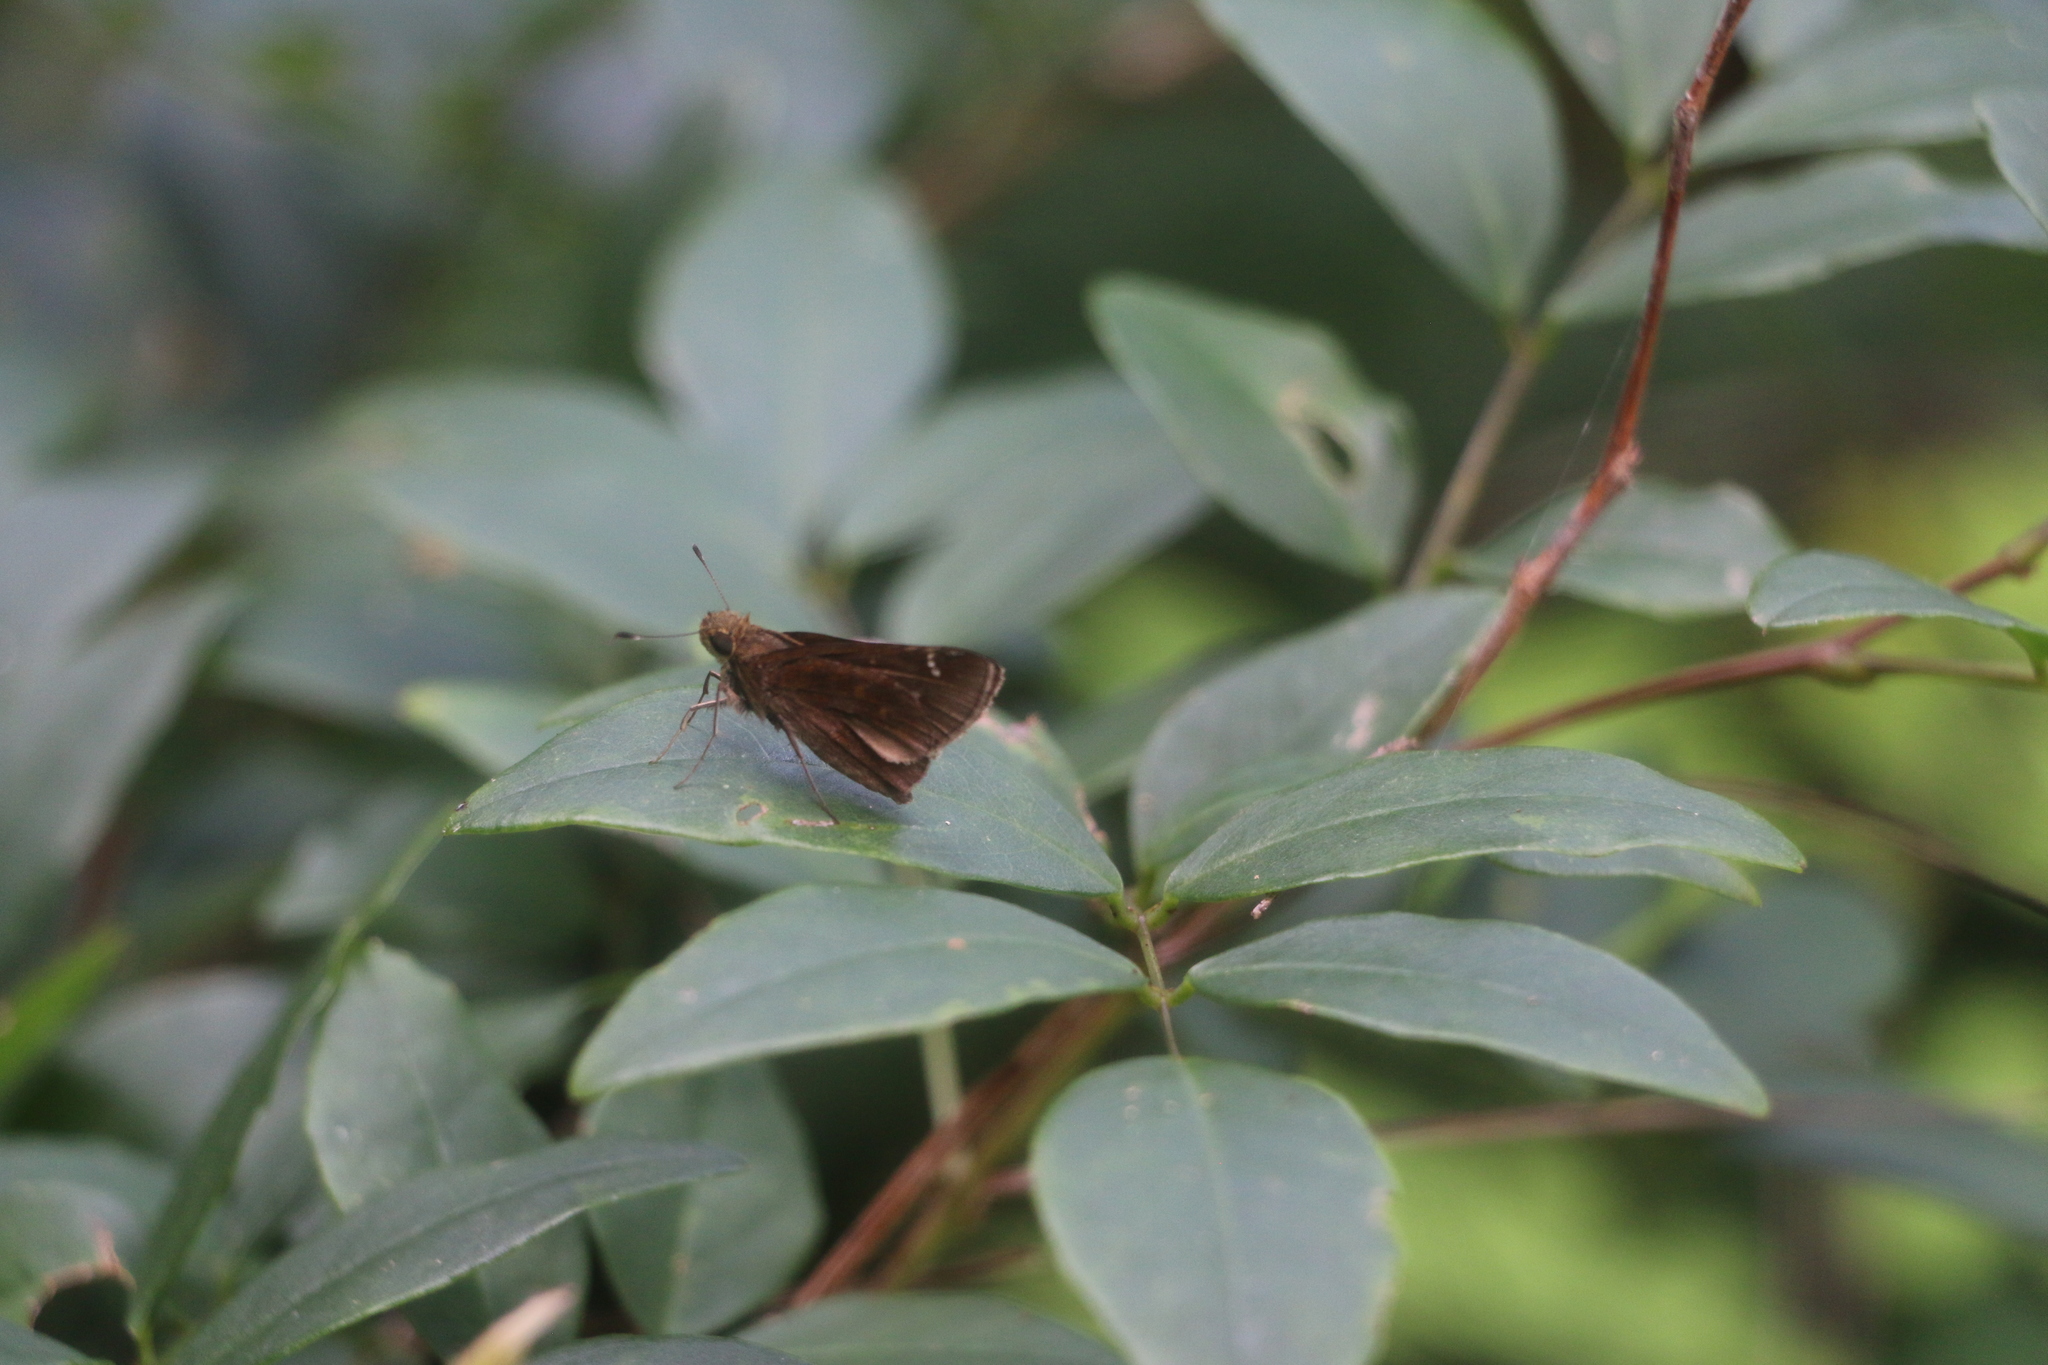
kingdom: Animalia
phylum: Arthropoda
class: Insecta
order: Lepidoptera
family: Hesperiidae
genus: Lerema
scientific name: Lerema accius
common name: Clouded skipper
